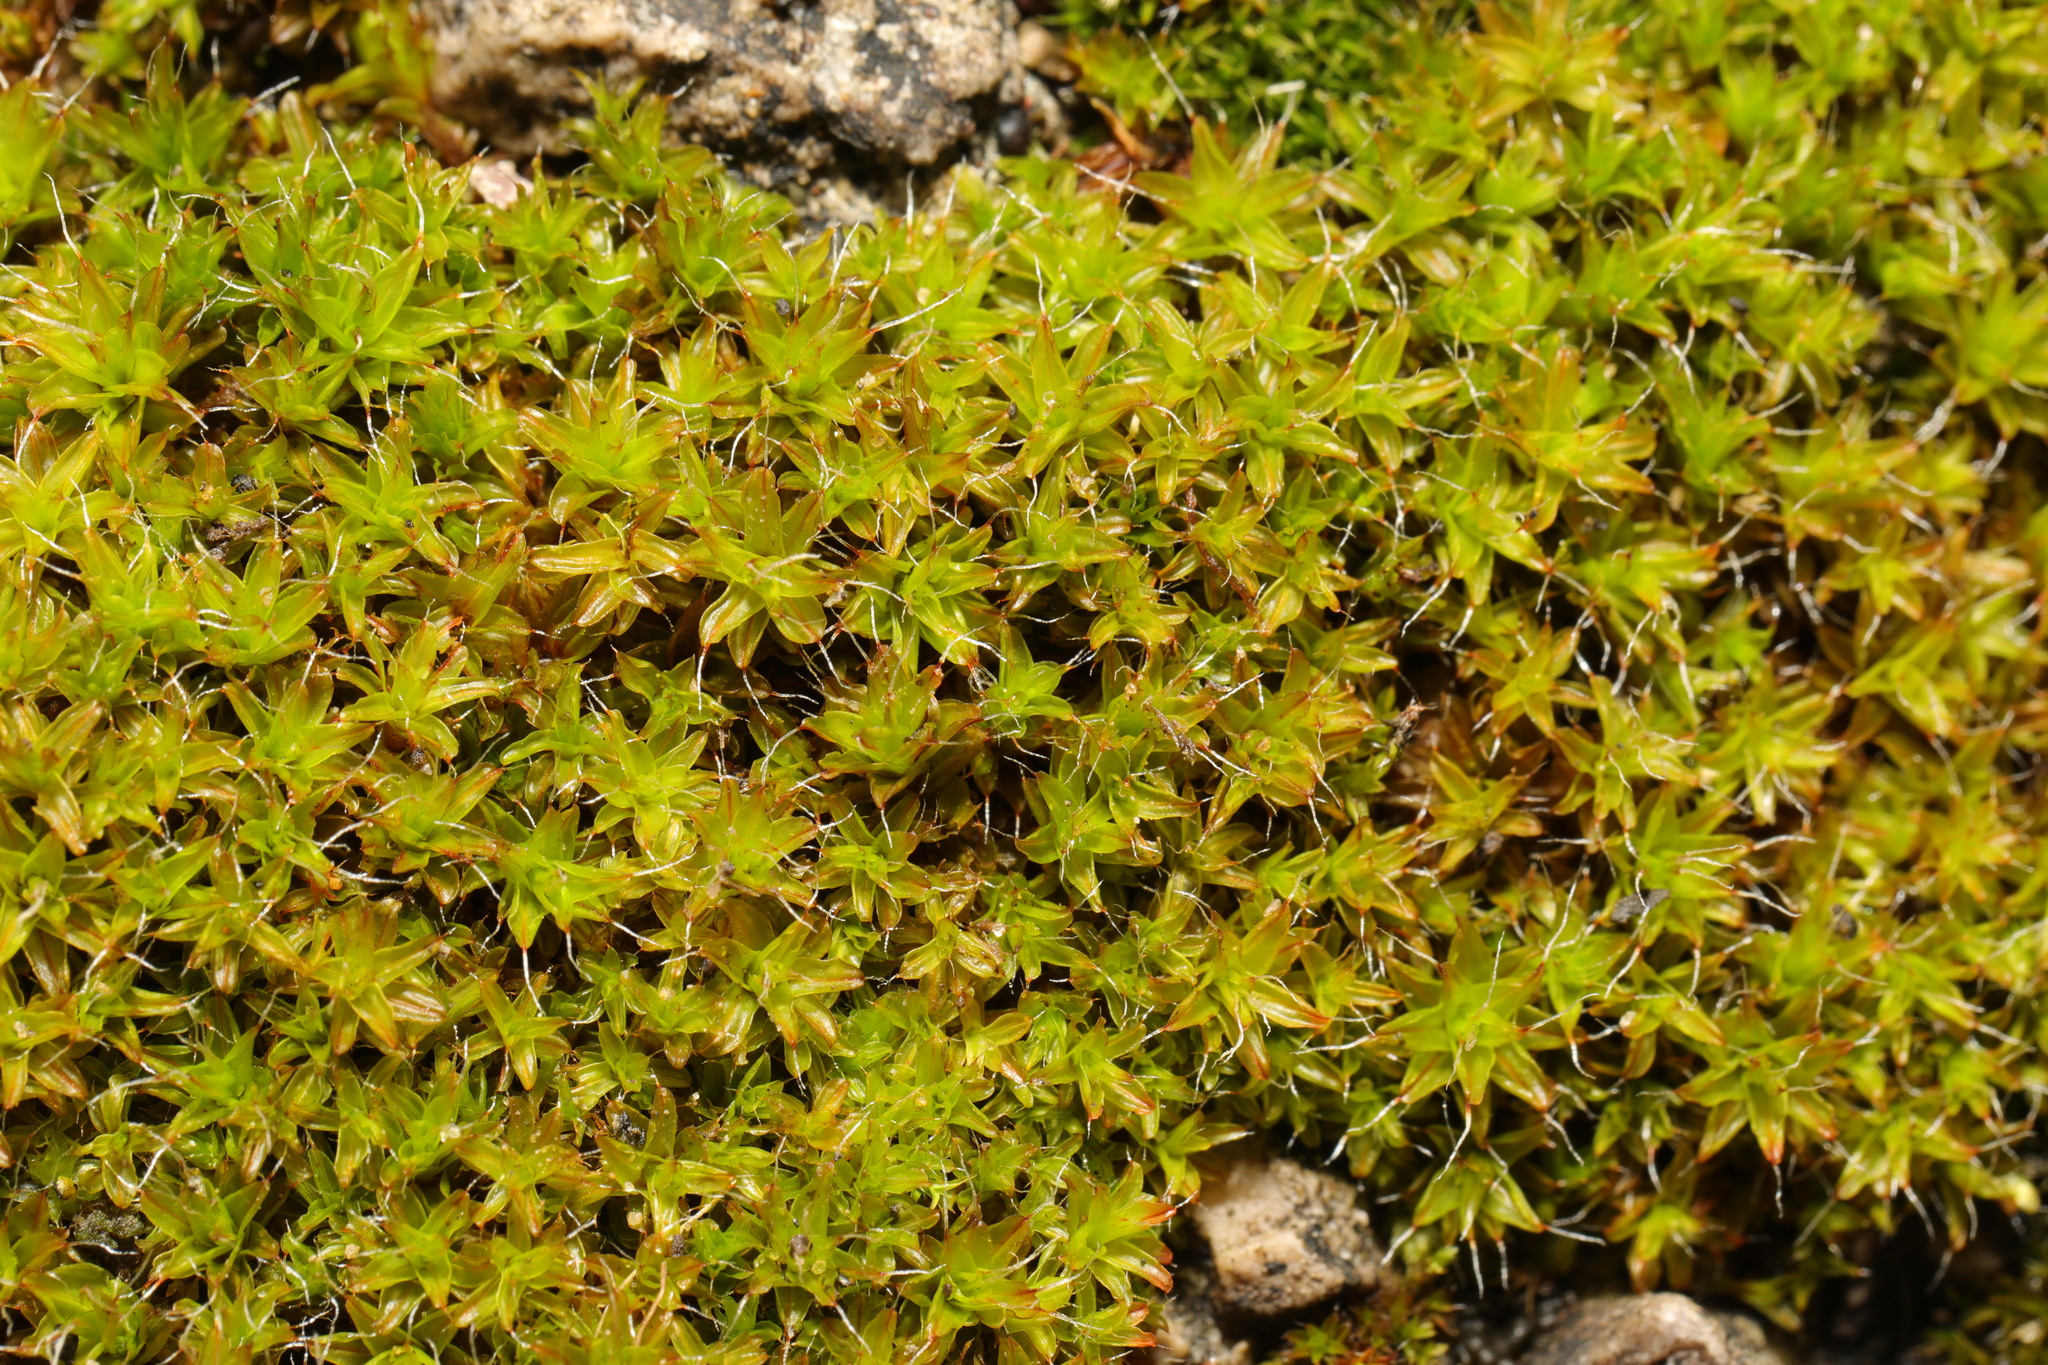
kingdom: Plantae
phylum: Bryophyta
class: Bryopsida
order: Pottiales
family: Pottiaceae
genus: Syntrichia
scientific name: Syntrichia ruralis
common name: Sidewalk screw moss
